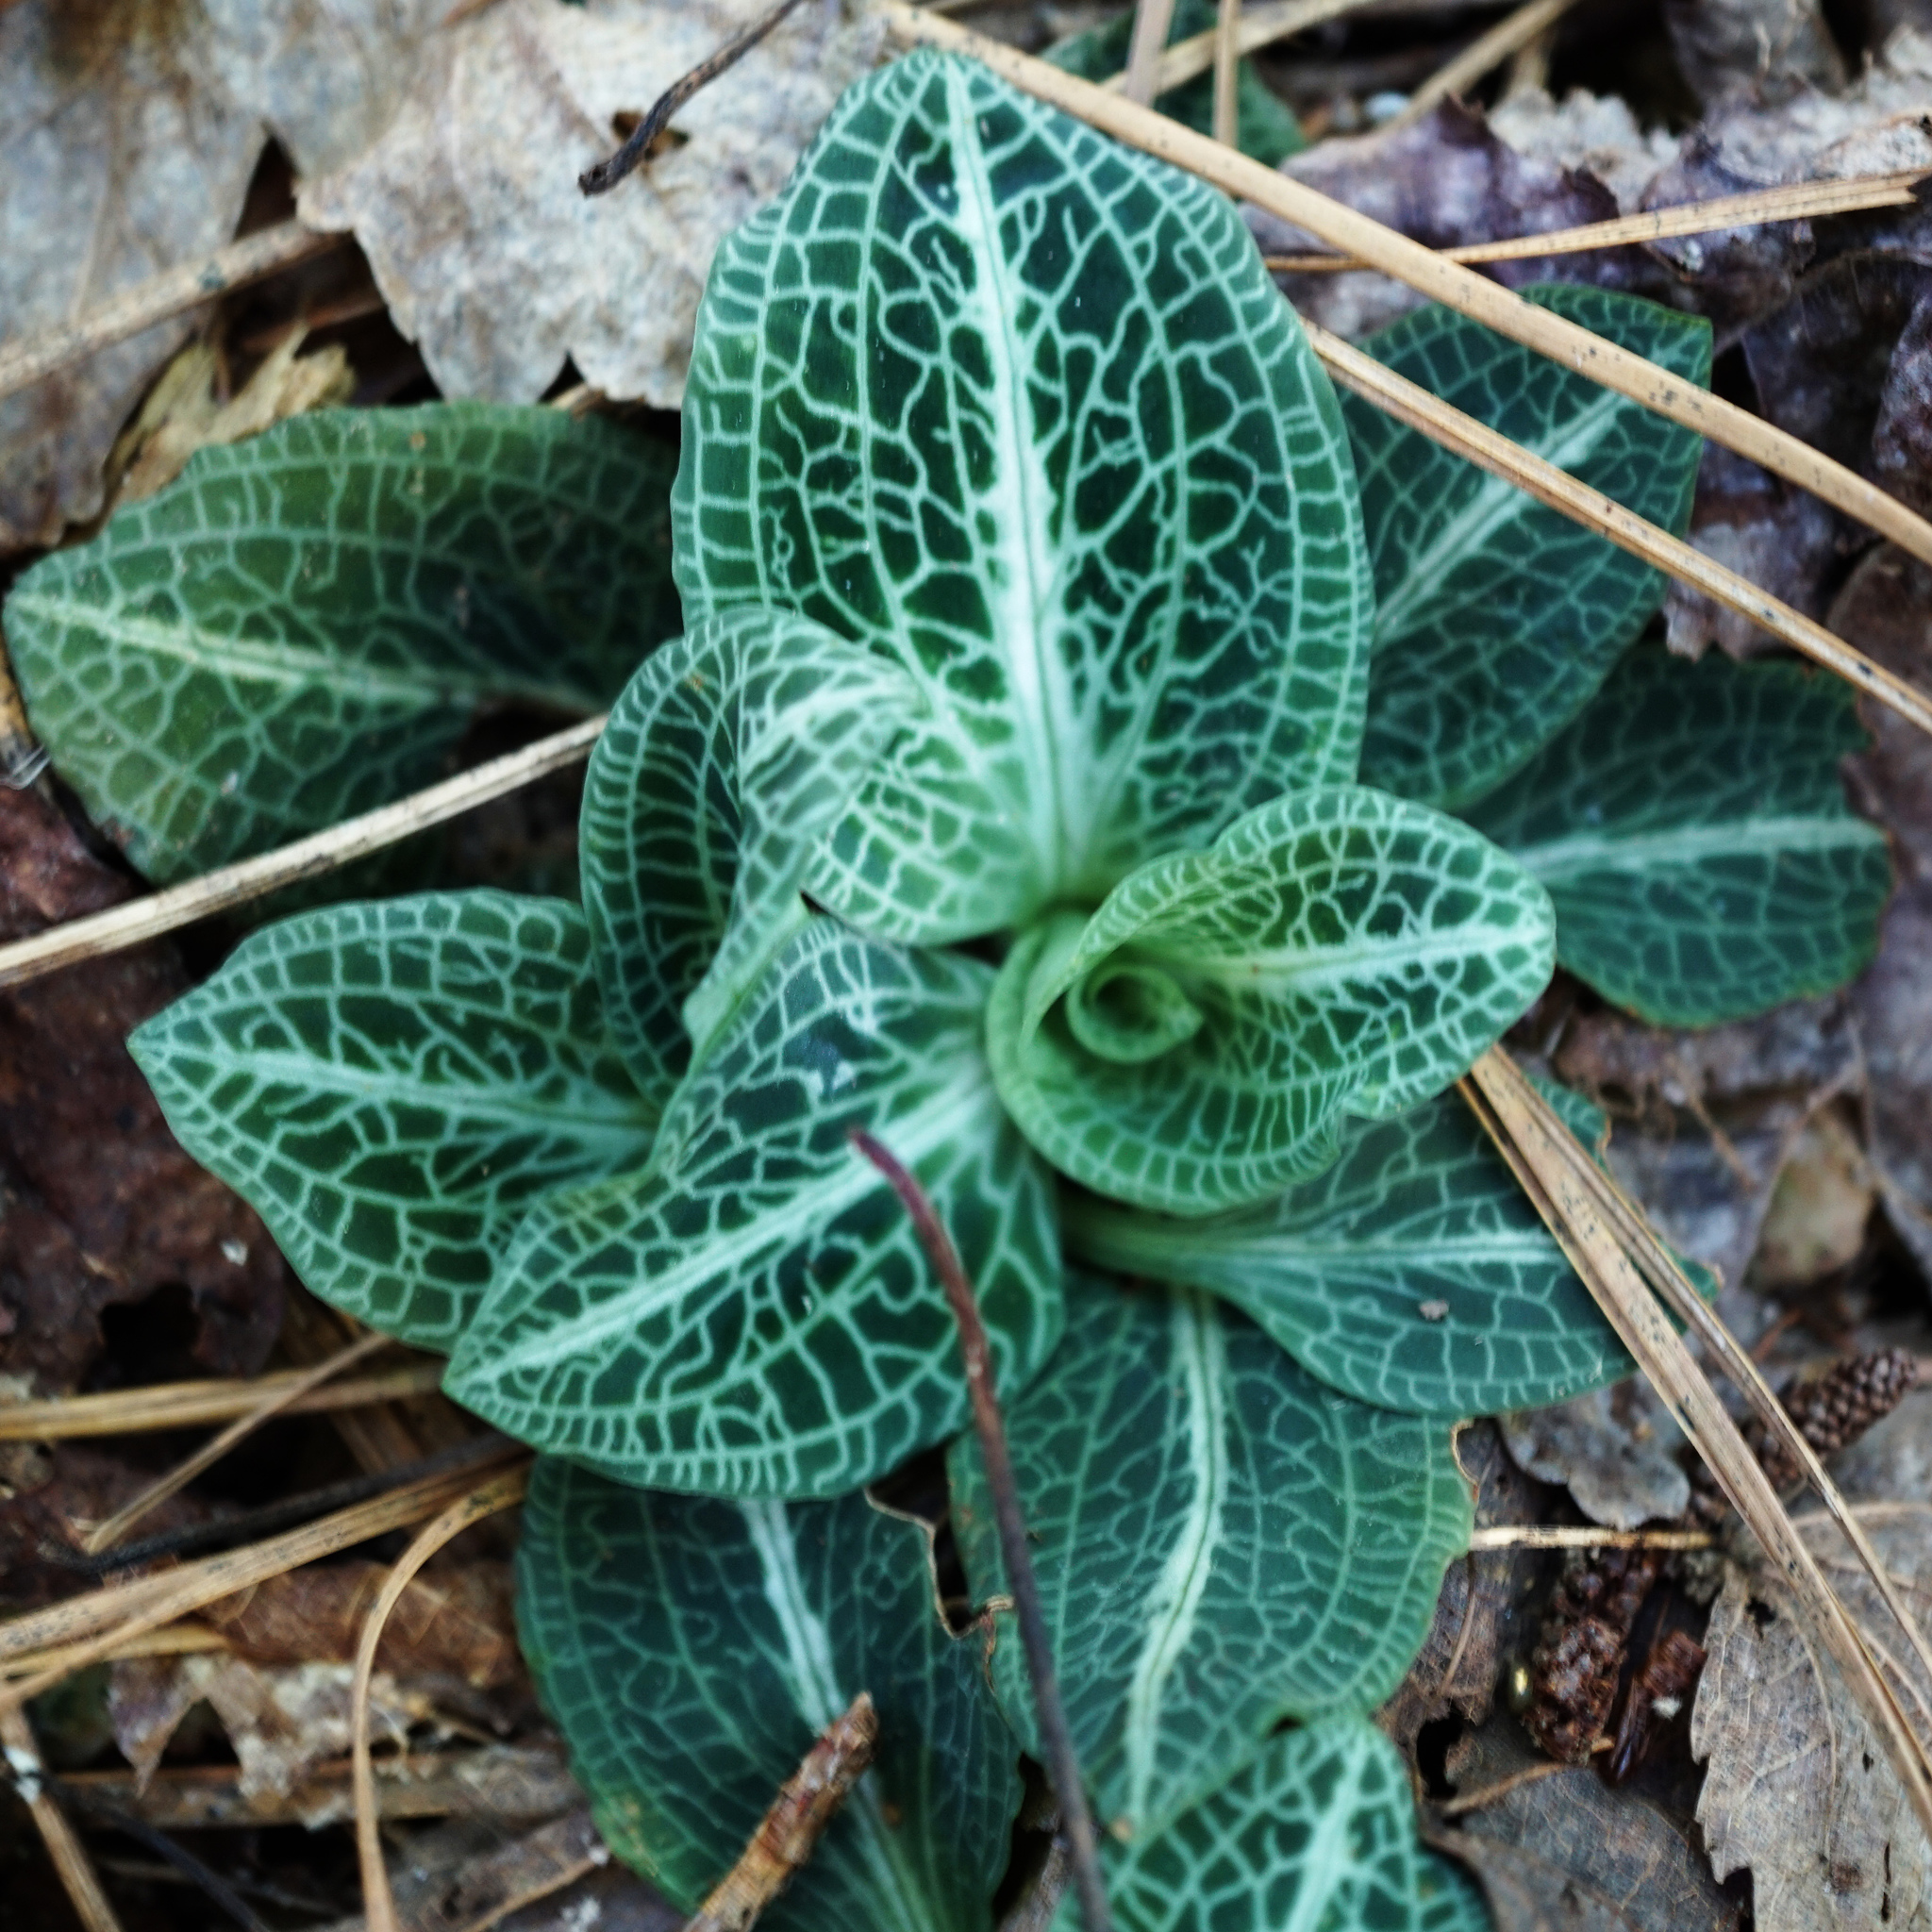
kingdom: Plantae
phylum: Tracheophyta
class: Liliopsida
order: Asparagales
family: Orchidaceae
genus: Goodyera
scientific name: Goodyera pubescens
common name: Downy rattlesnake-plantain
